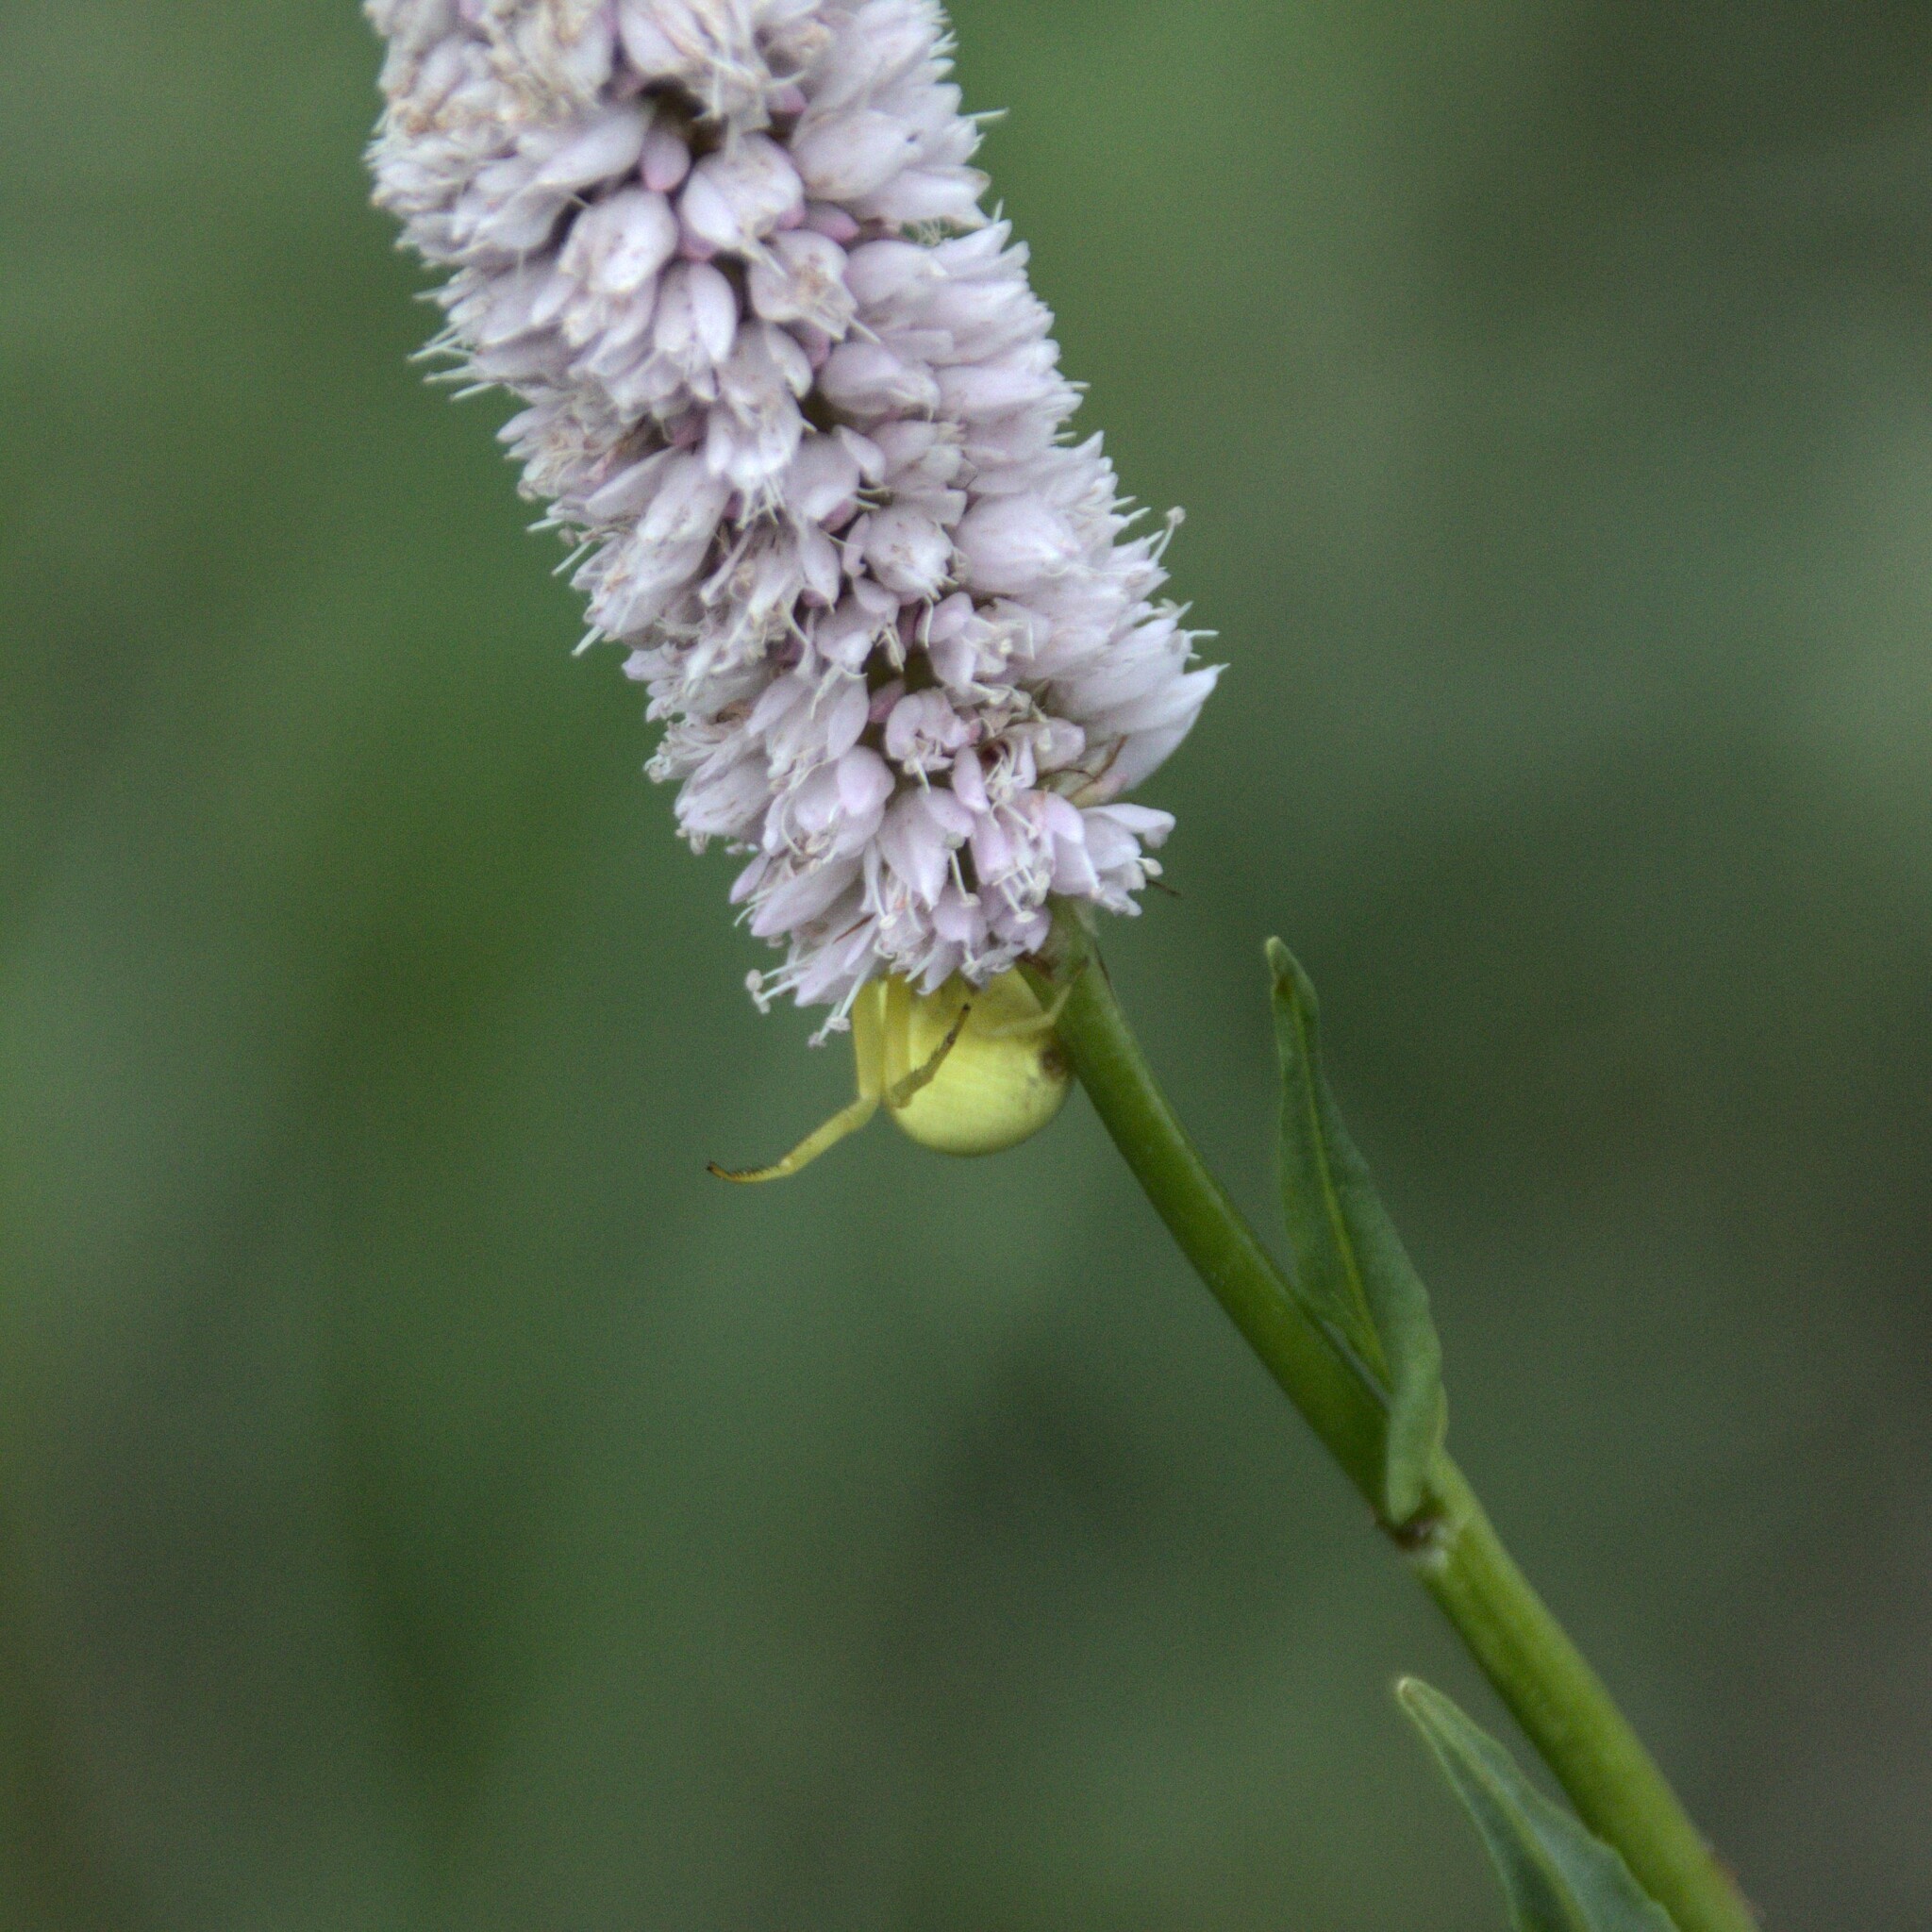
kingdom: Animalia
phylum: Arthropoda
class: Arachnida
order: Araneae
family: Thomisidae
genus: Misumena
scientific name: Misumena vatia
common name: Goldenrod crab spider
